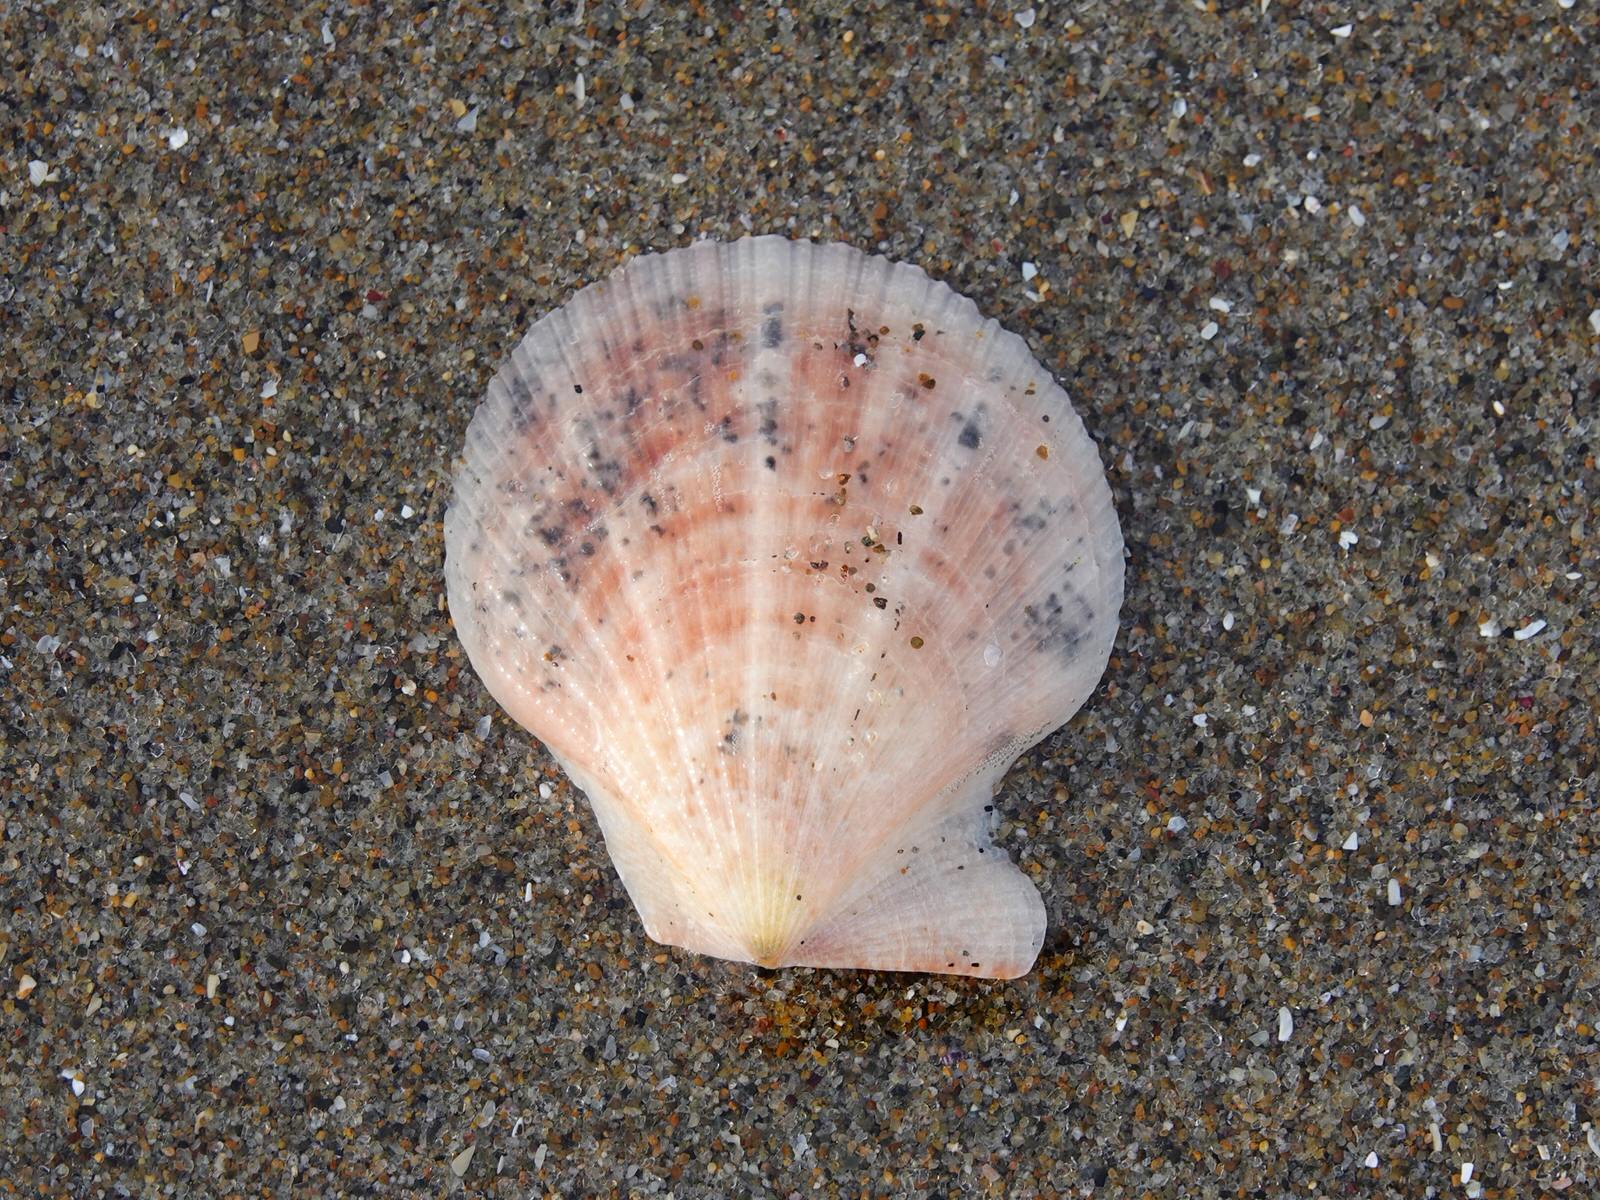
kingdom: Animalia
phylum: Mollusca
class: Bivalvia
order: Pectinida
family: Pectinidae
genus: Talochlamys
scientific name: Talochlamys zelandiae
